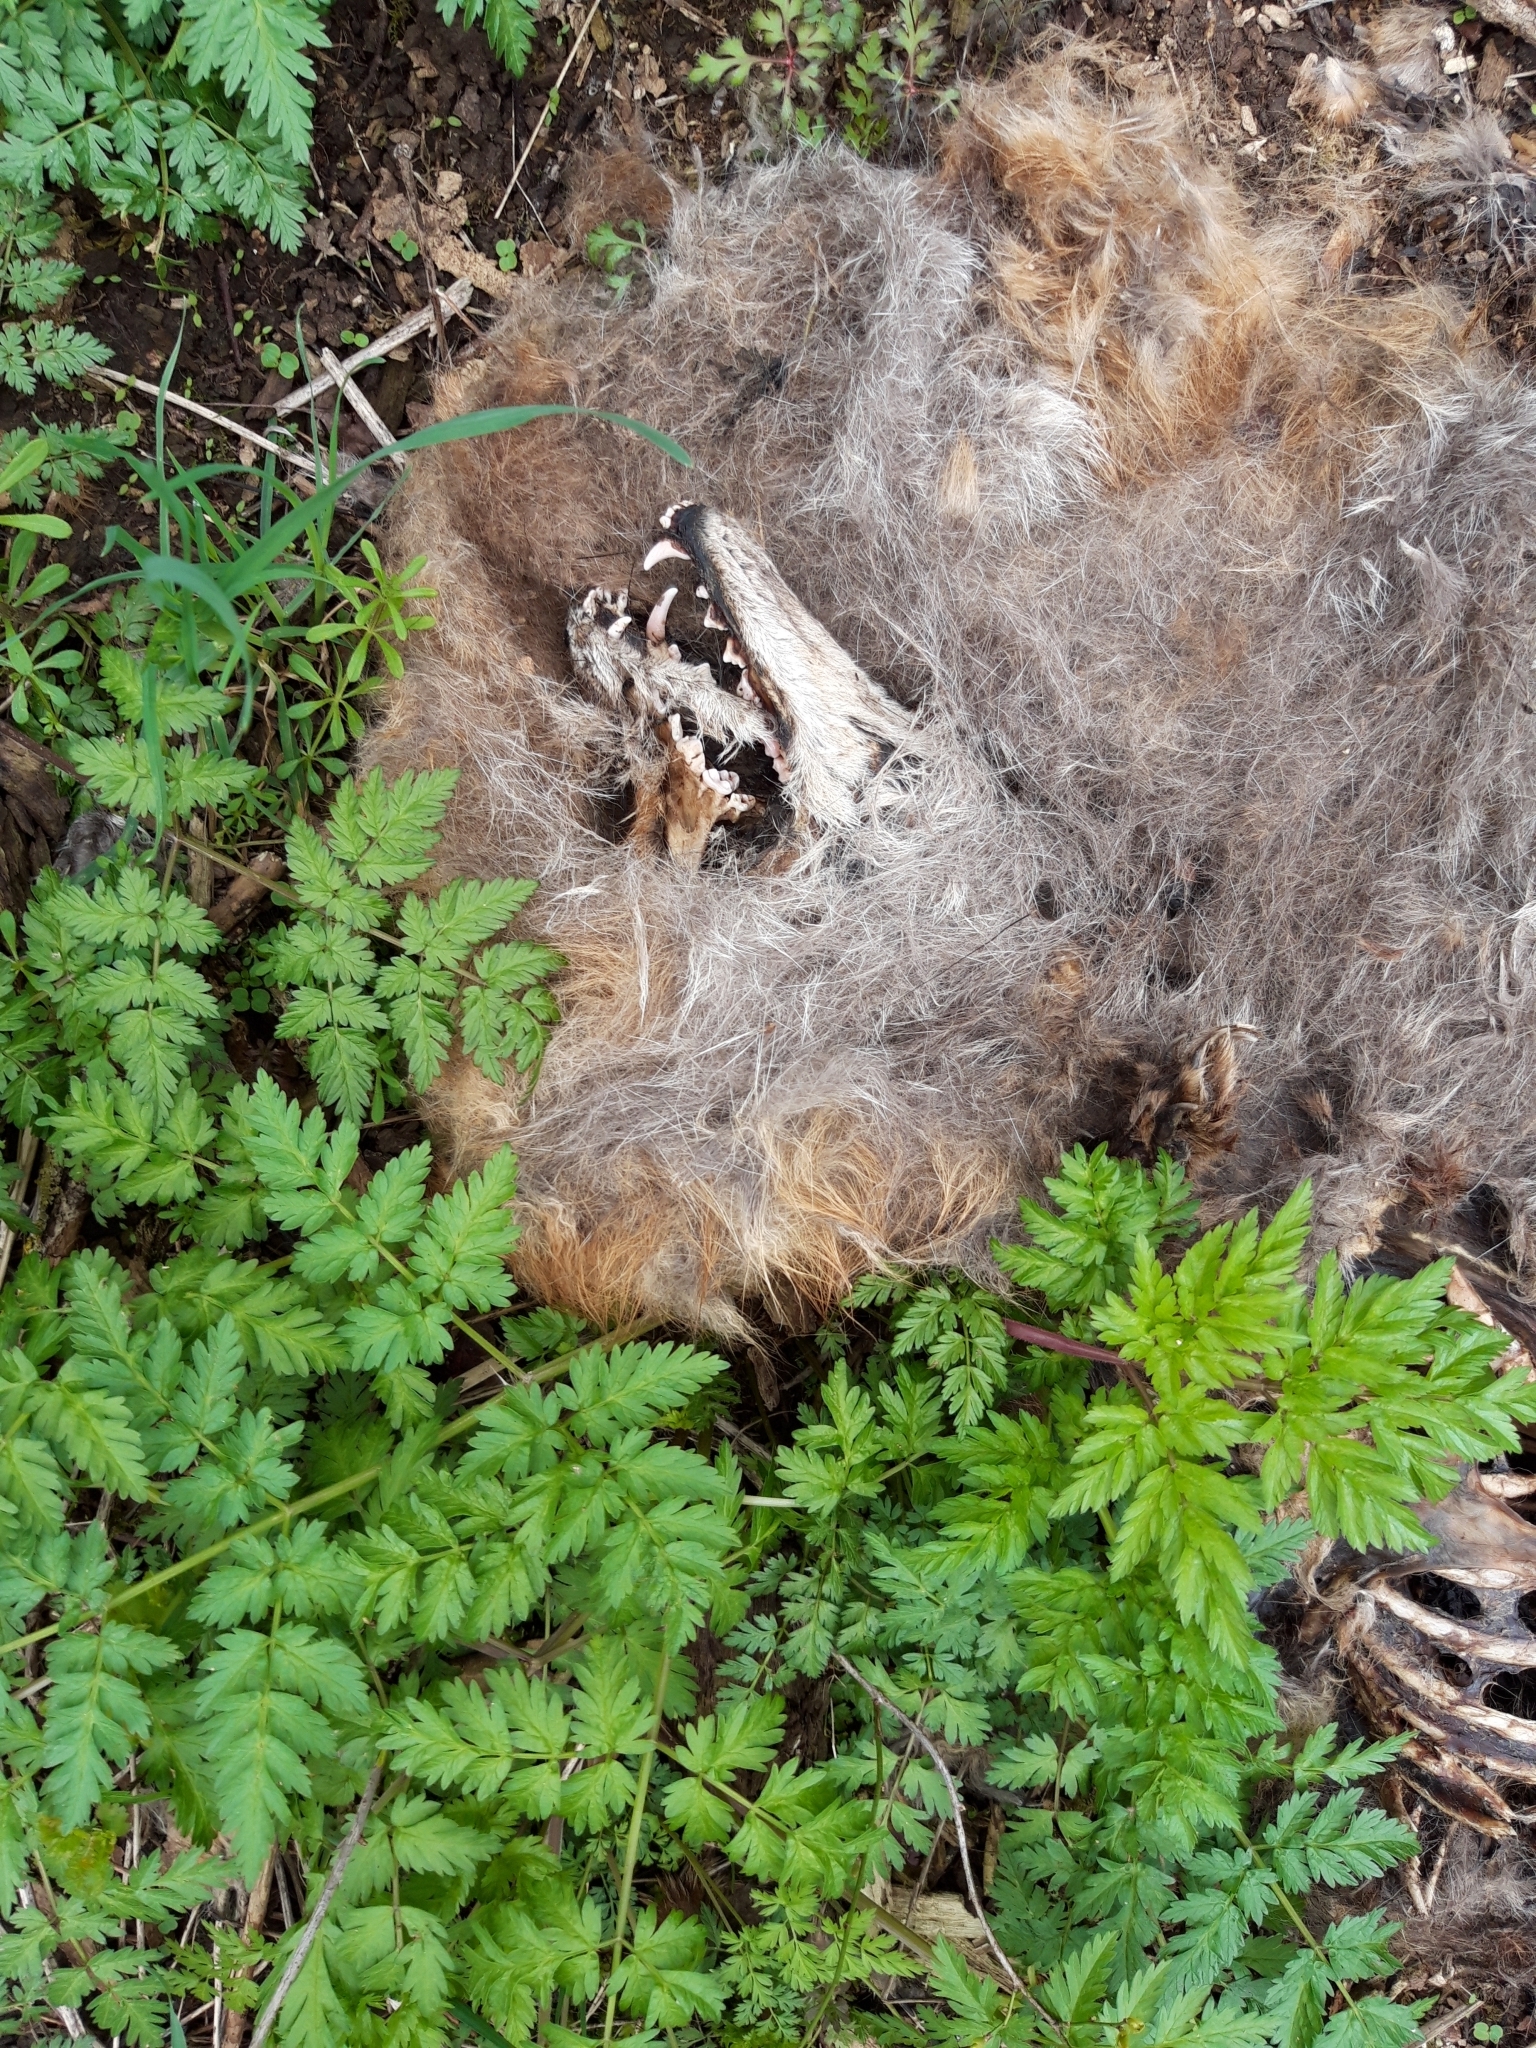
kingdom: Animalia
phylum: Chordata
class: Mammalia
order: Carnivora
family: Canidae
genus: Vulpes
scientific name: Vulpes vulpes
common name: Red fox
